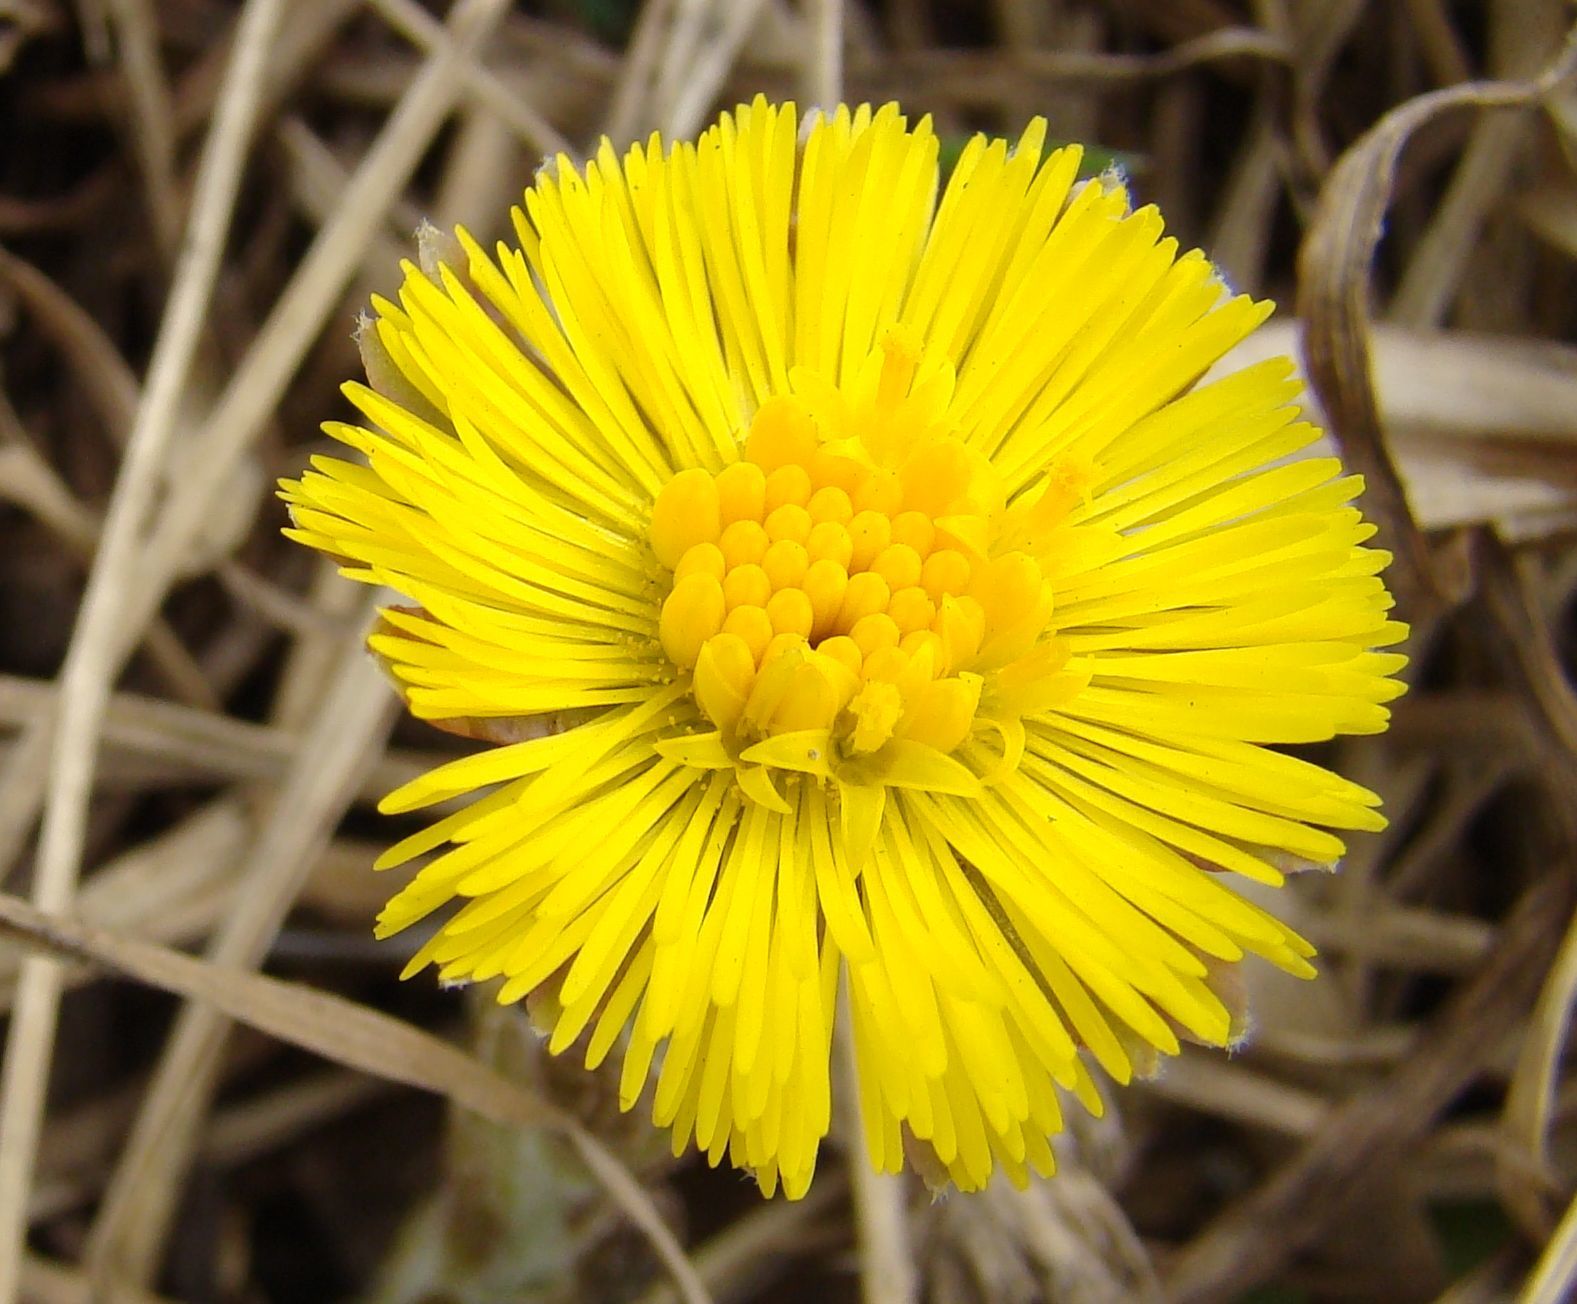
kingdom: Plantae
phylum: Tracheophyta
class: Magnoliopsida
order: Asterales
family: Asteraceae
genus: Tussilago
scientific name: Tussilago farfara
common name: Coltsfoot
